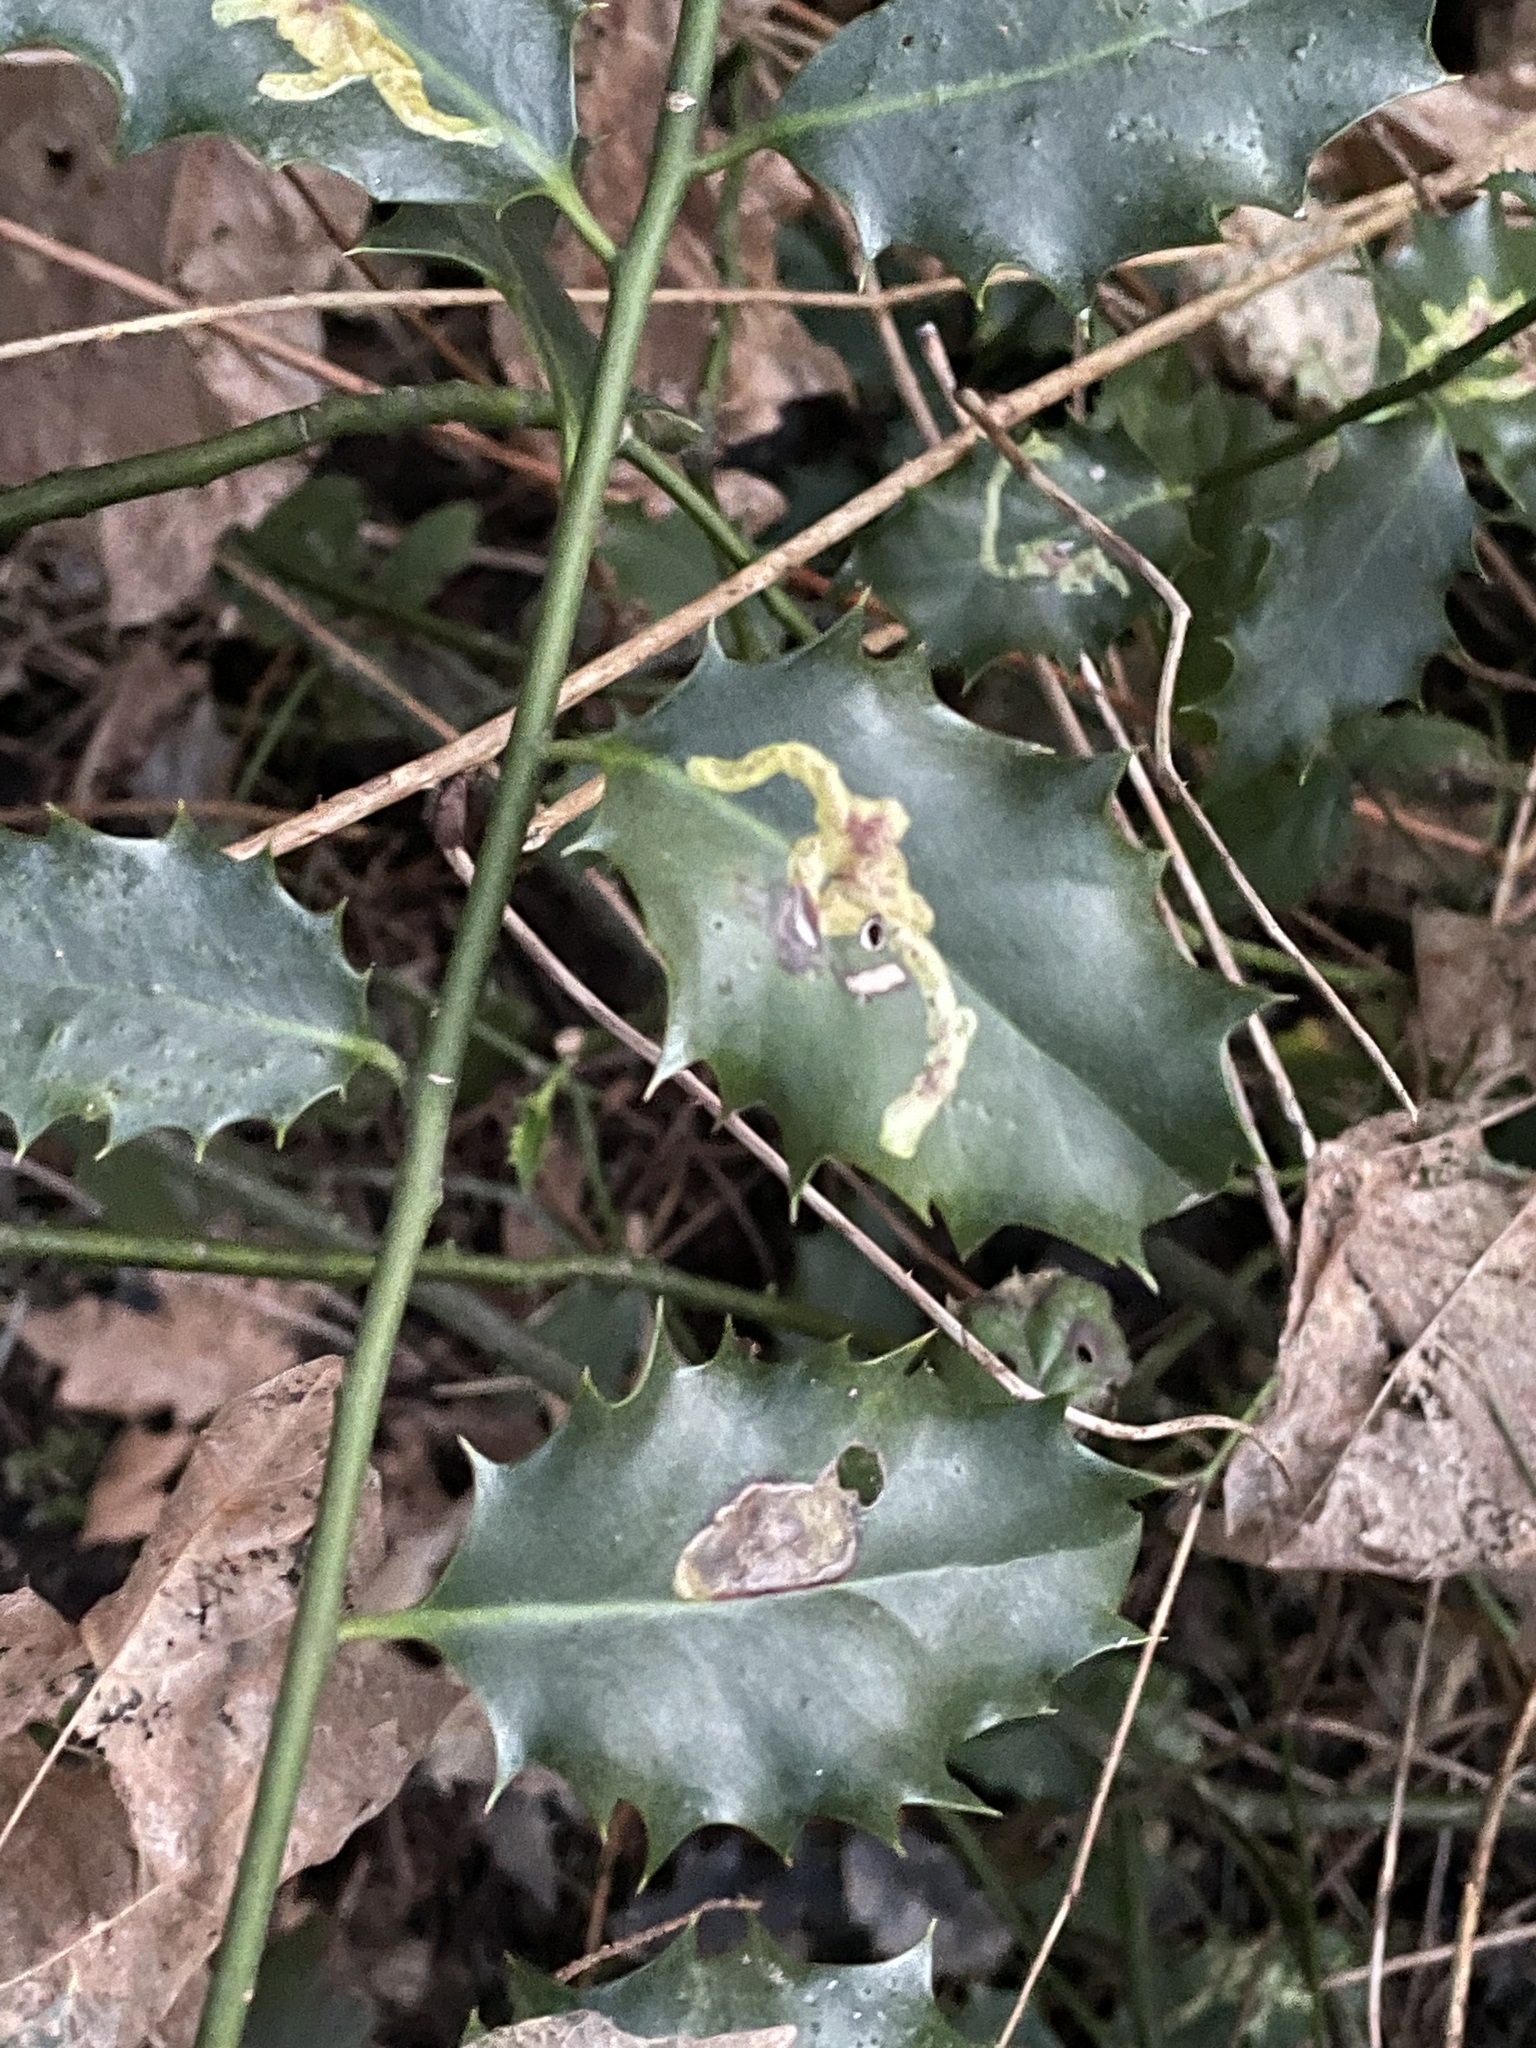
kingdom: Animalia
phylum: Arthropoda
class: Insecta
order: Diptera
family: Agromyzidae
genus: Phytomyza
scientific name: Phytomyza ilicis
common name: Holly leafminer
